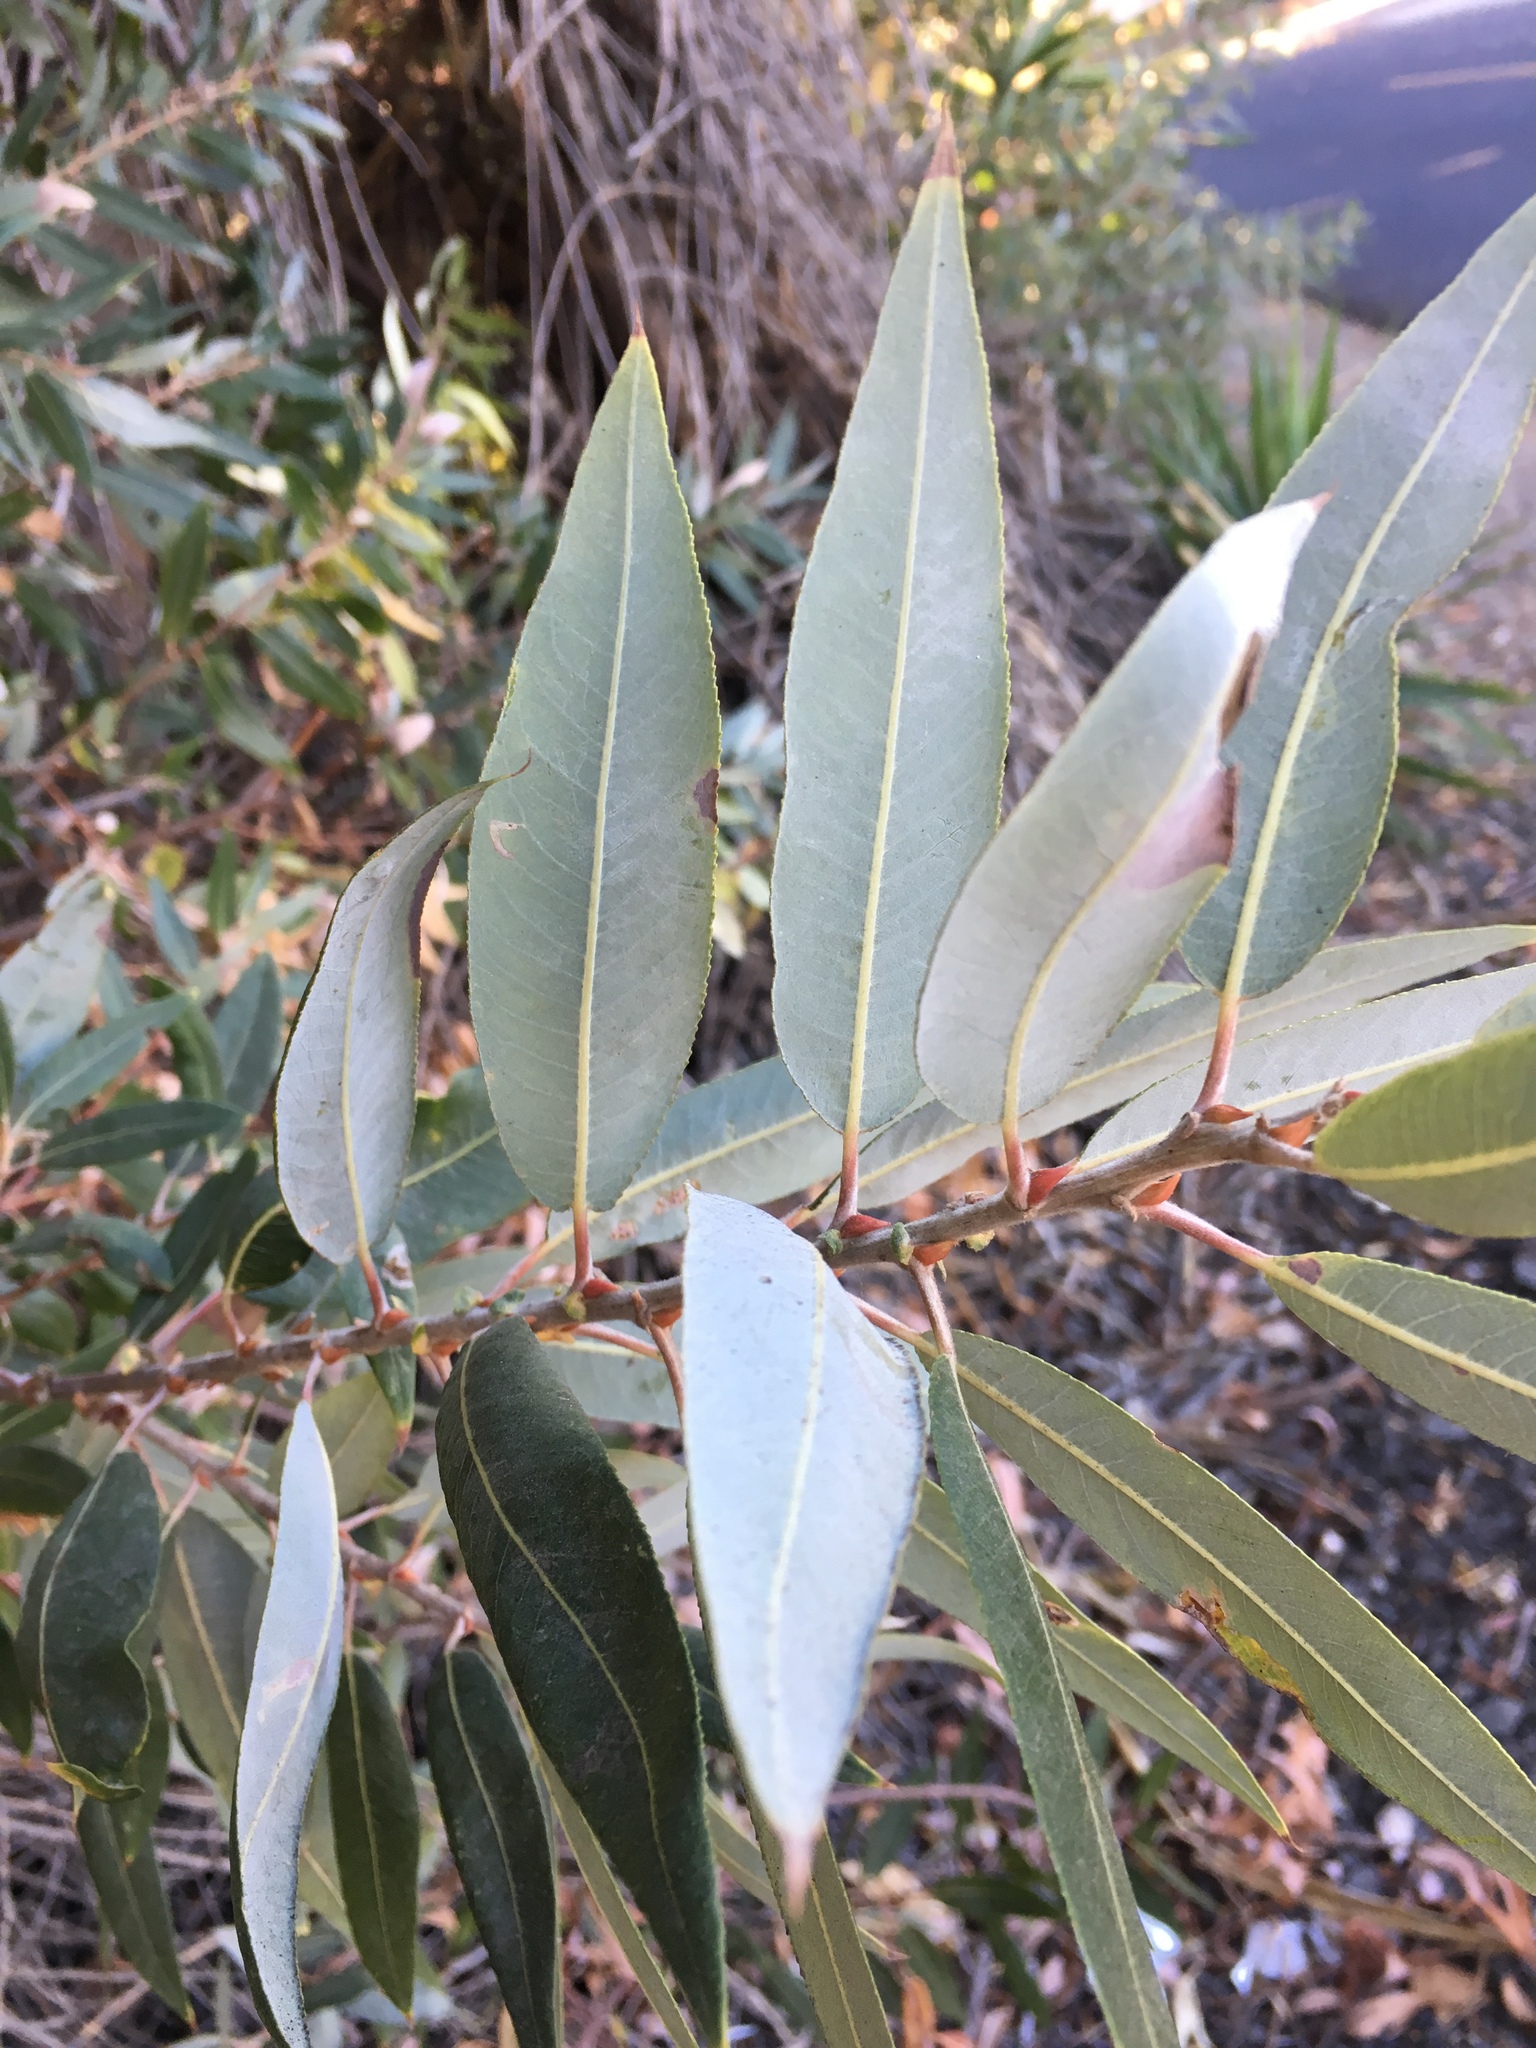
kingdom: Plantae
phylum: Tracheophyta
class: Magnoliopsida
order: Malpighiales
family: Salicaceae
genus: Salix
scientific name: Salix laevigata
